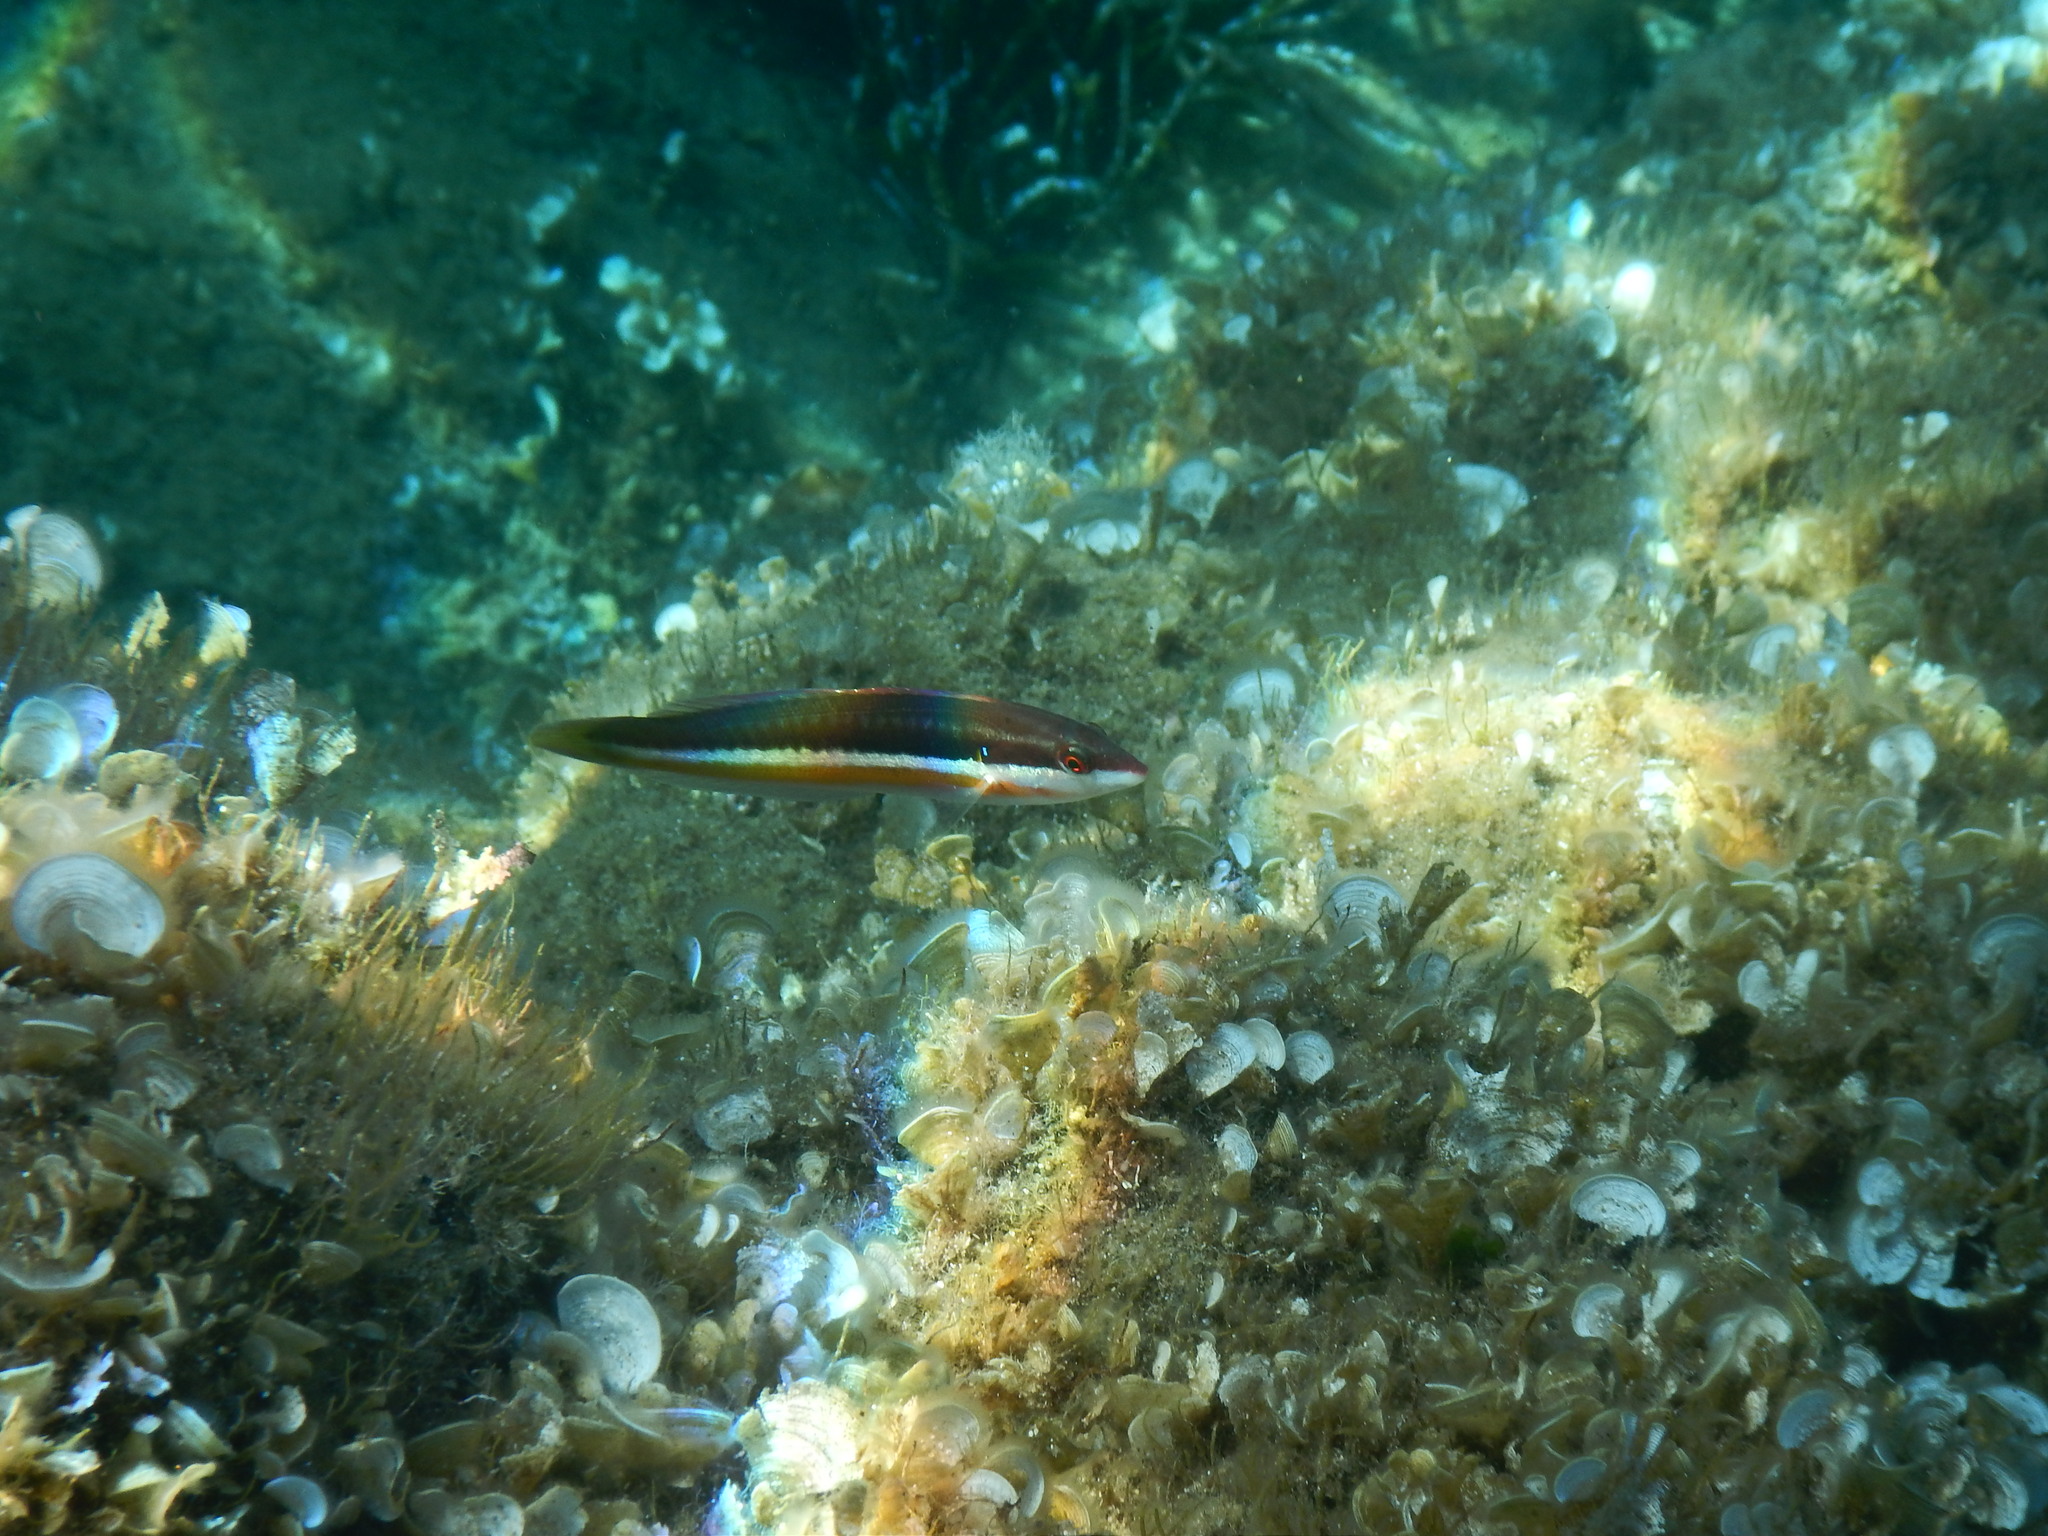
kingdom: Animalia
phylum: Chordata
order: Perciformes
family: Labridae
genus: Coris
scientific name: Coris julis
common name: Rainbow wrasse
